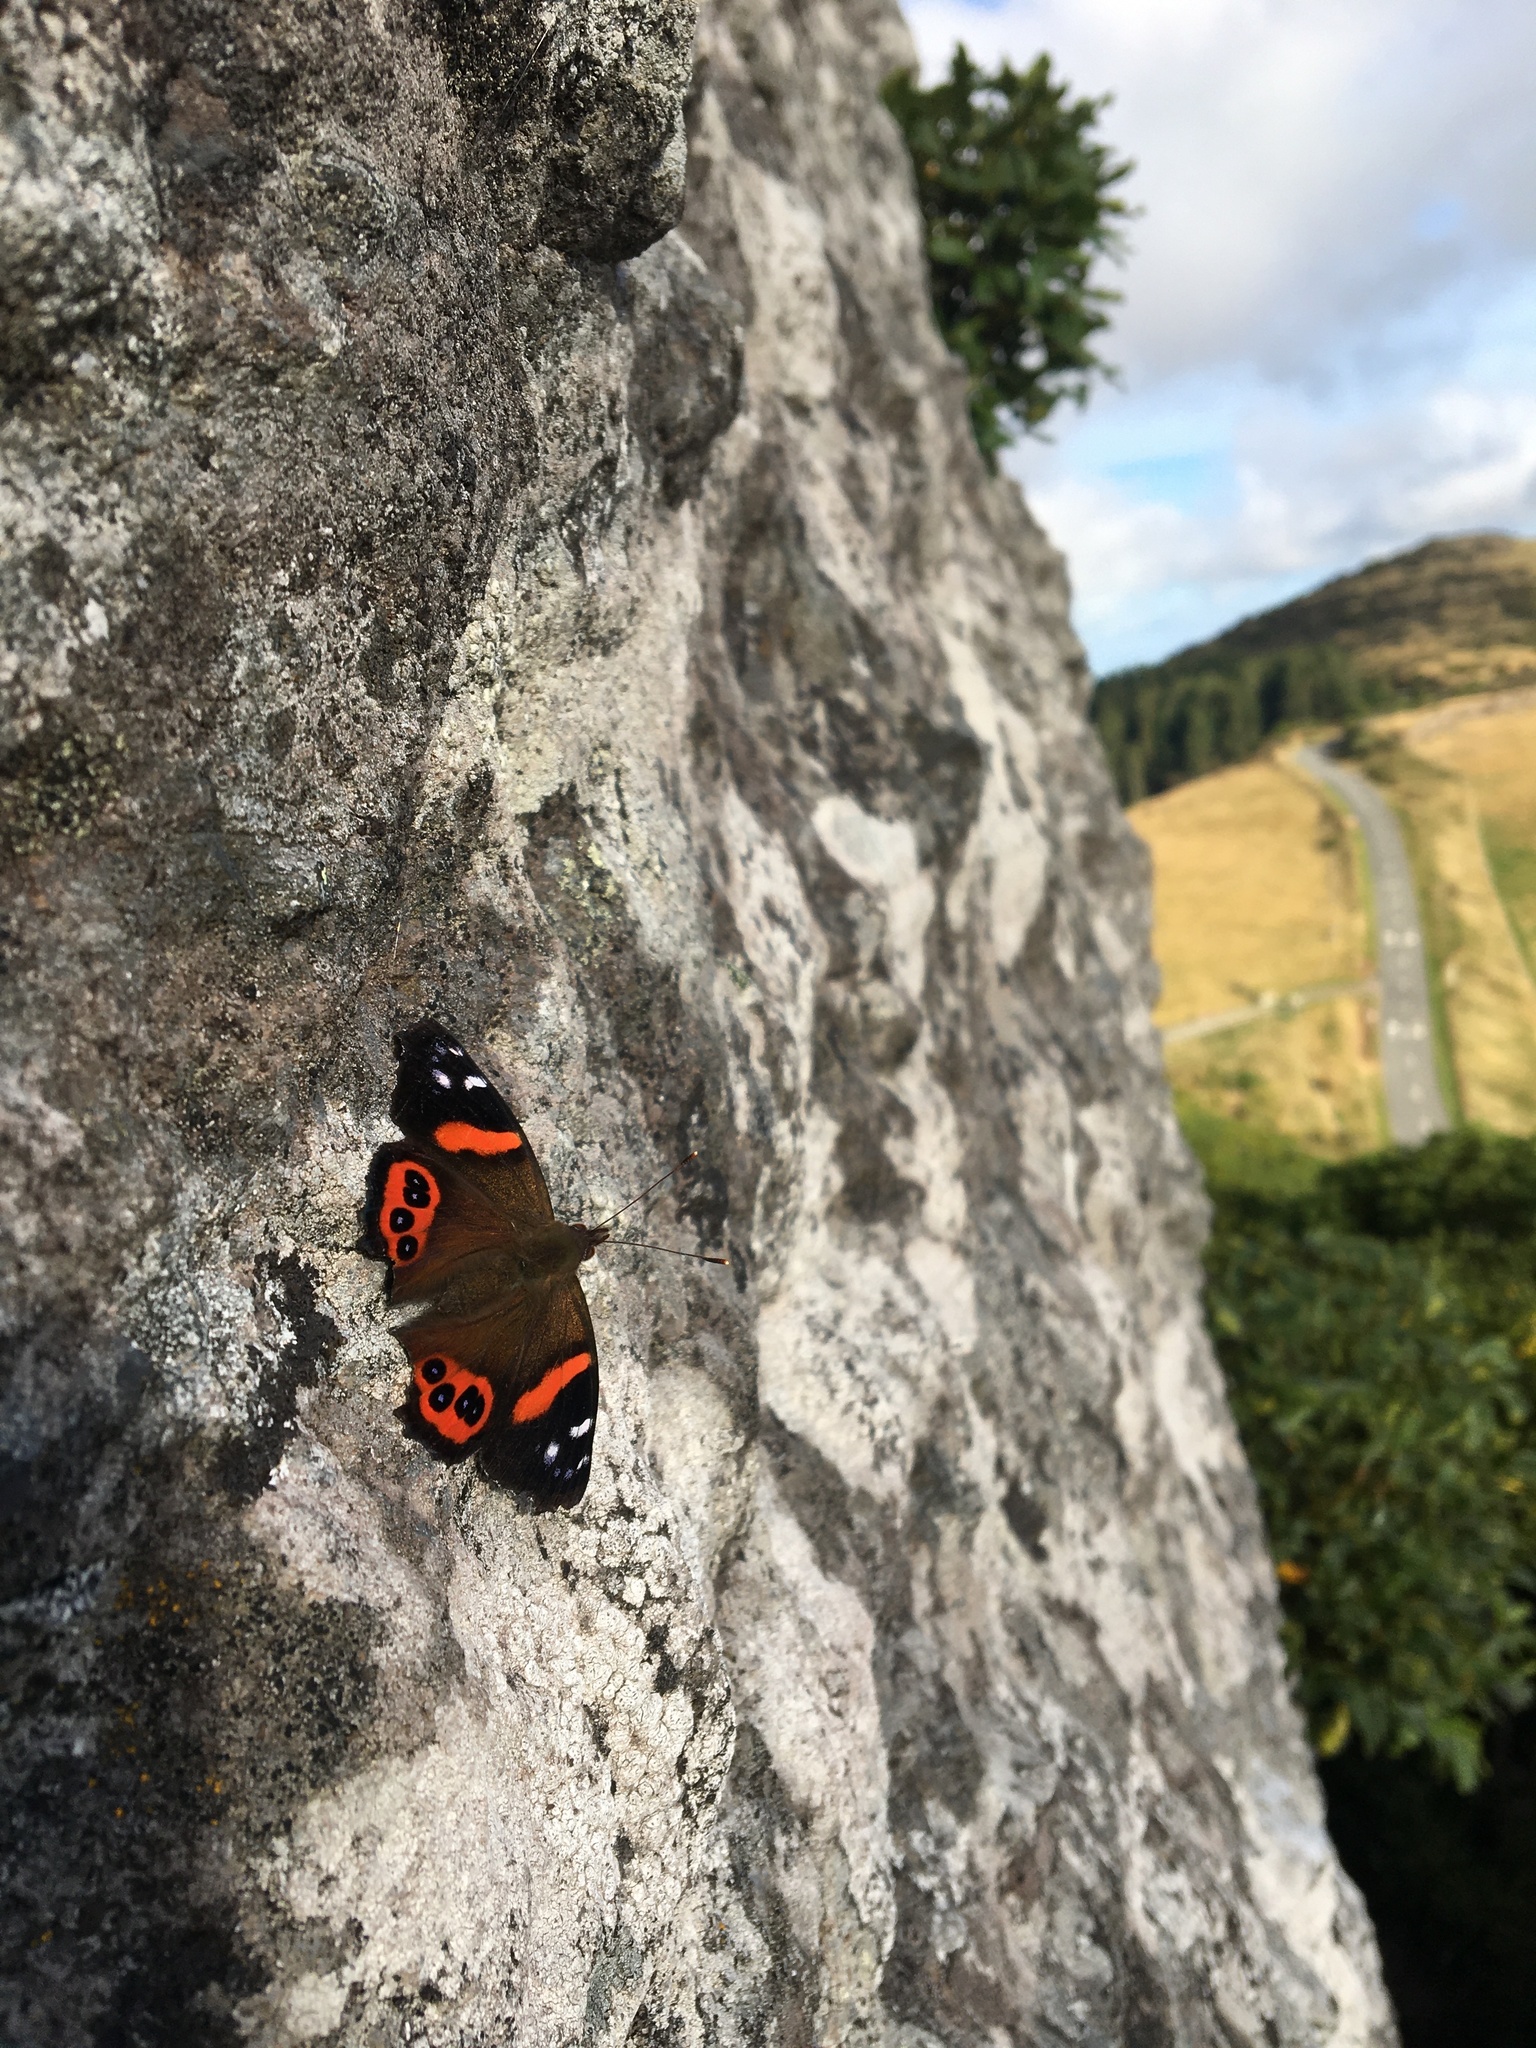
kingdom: Animalia
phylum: Arthropoda
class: Insecta
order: Lepidoptera
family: Nymphalidae
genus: Vanessa
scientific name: Vanessa gonerilla
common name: New zealand red admiral
